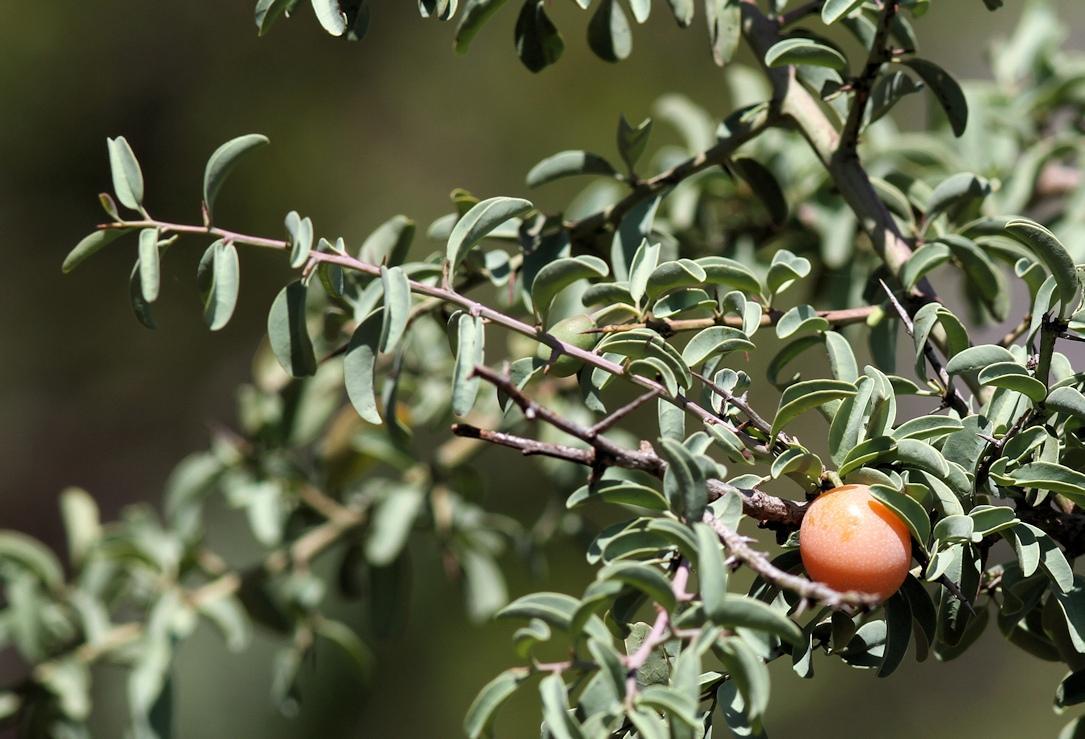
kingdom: Plantae
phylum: Tracheophyta
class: Magnoliopsida
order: Santalales
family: Ximeniaceae
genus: Ximenia
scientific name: Ximenia americana
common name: Tallowwood
